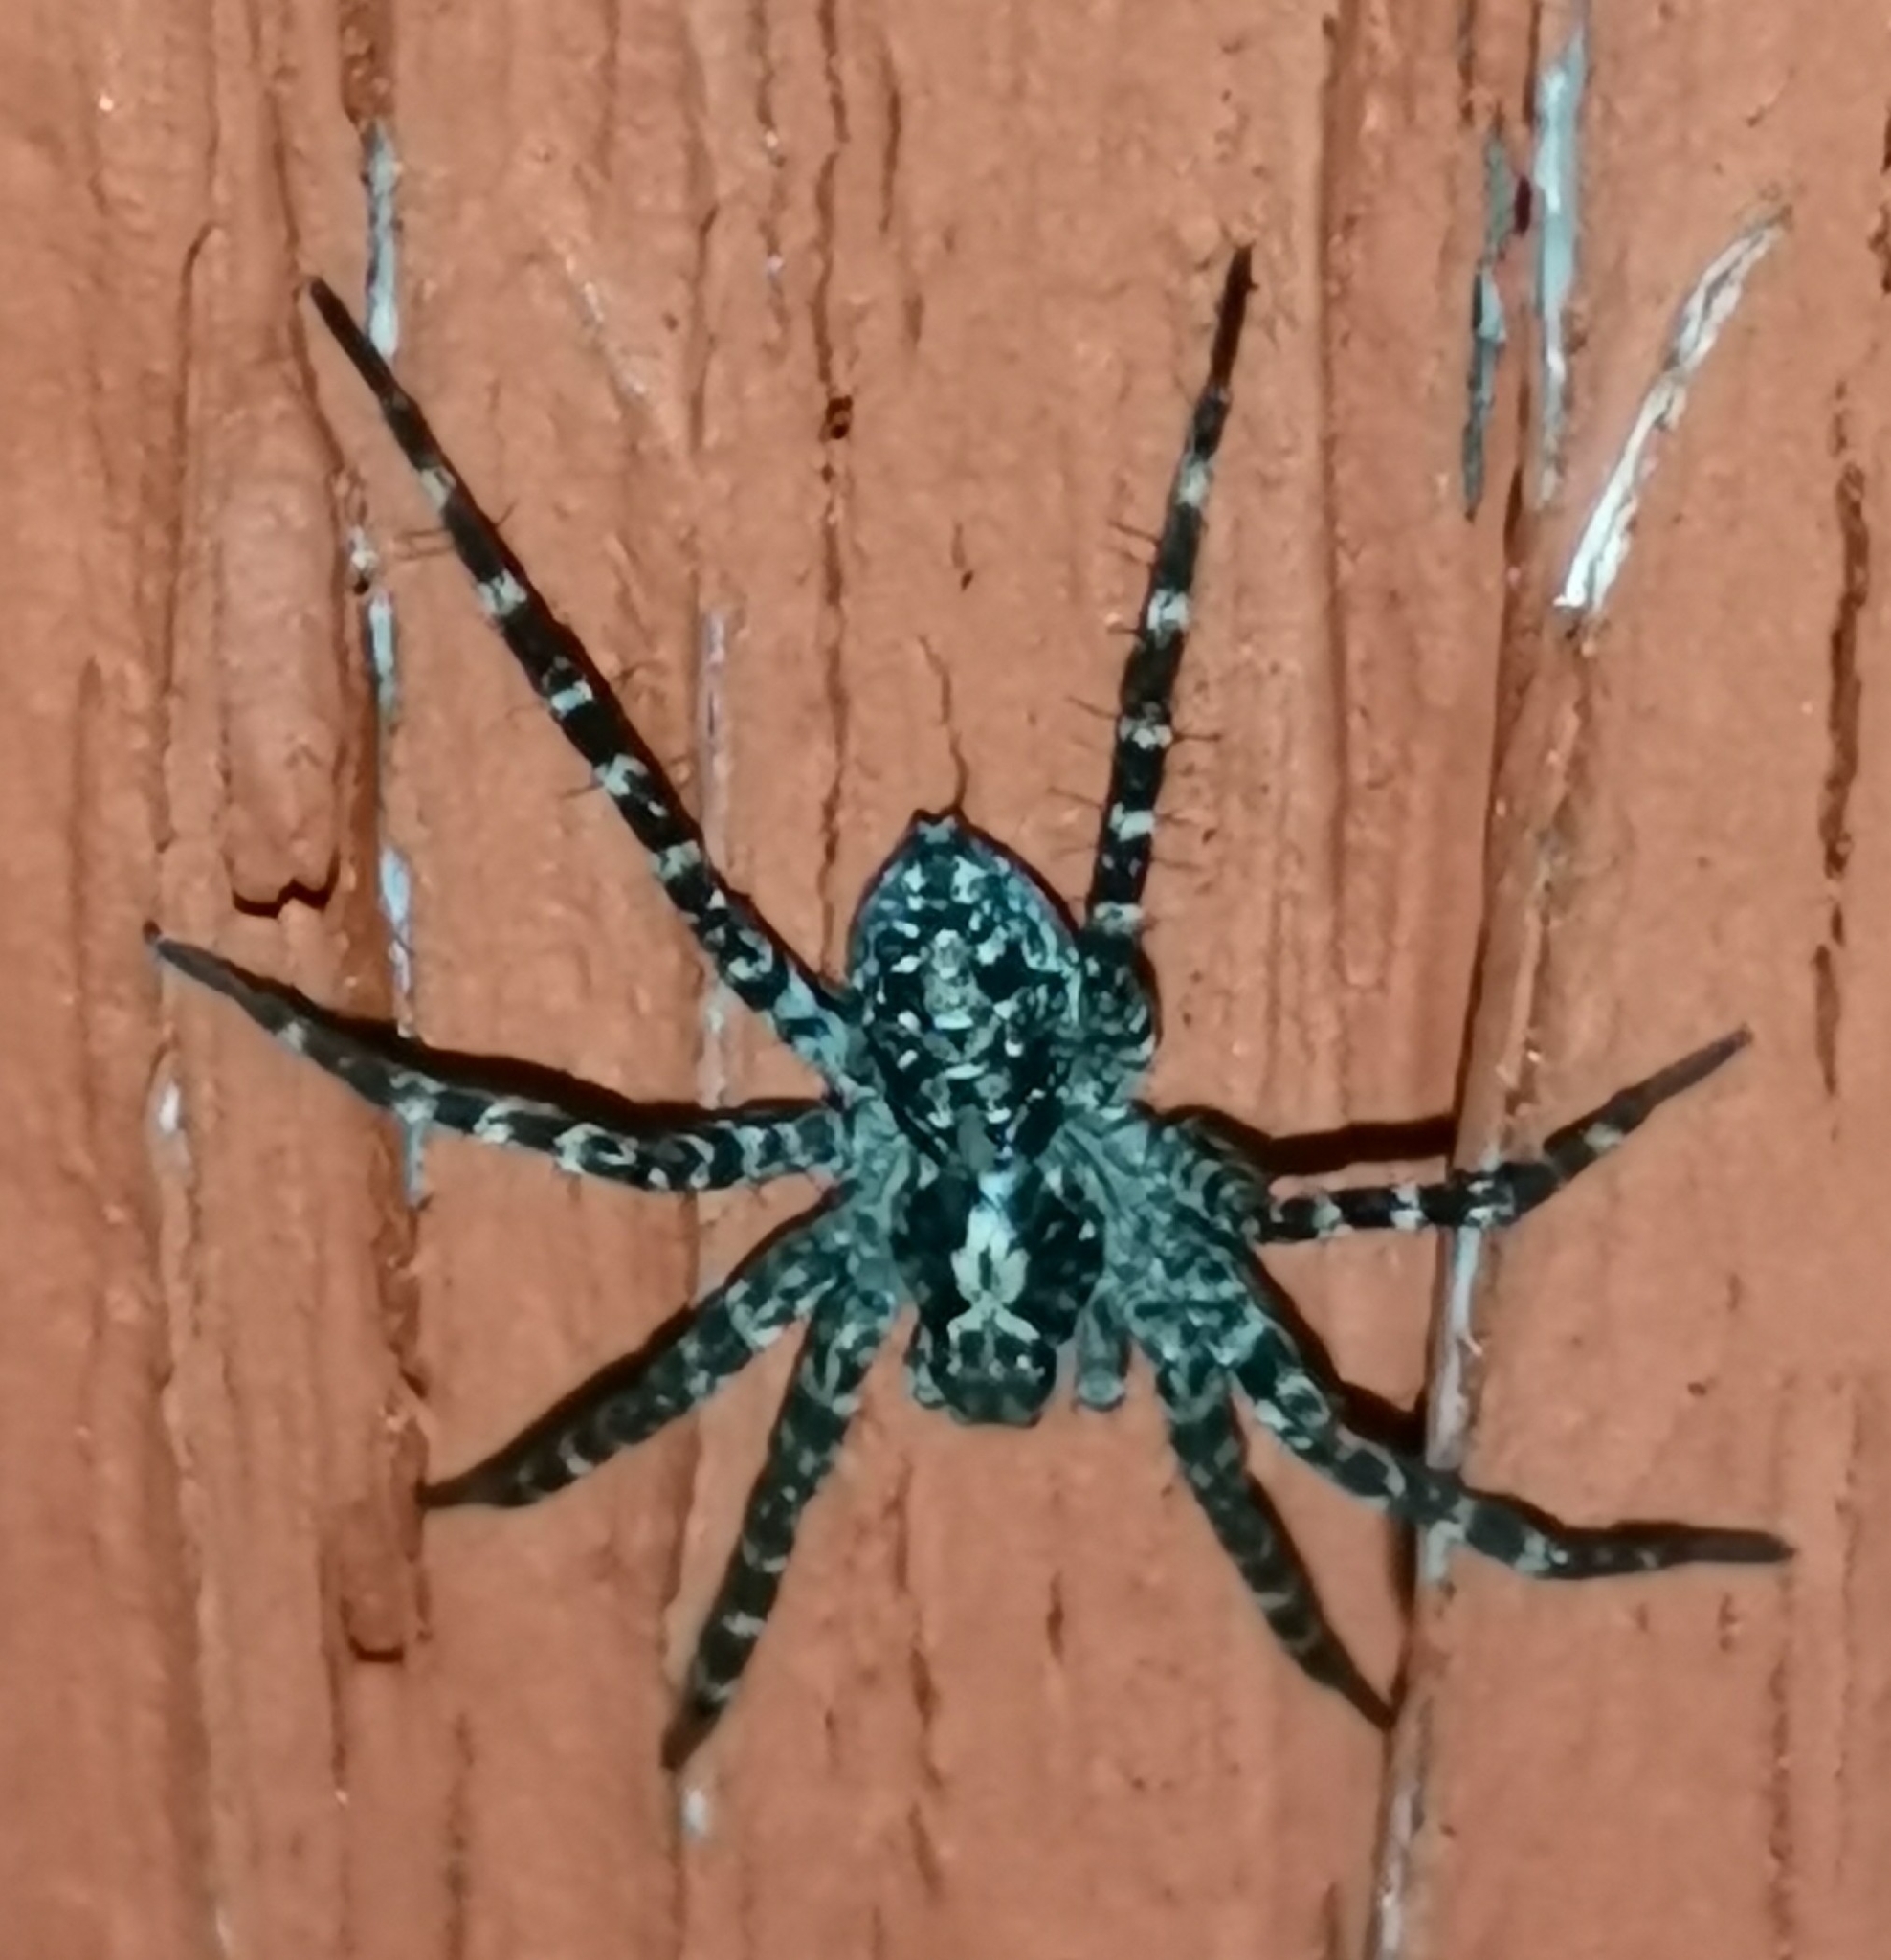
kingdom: Animalia
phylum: Arthropoda
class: Arachnida
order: Araneae
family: Lycosidae
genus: Acantholycosa
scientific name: Acantholycosa lignaria
